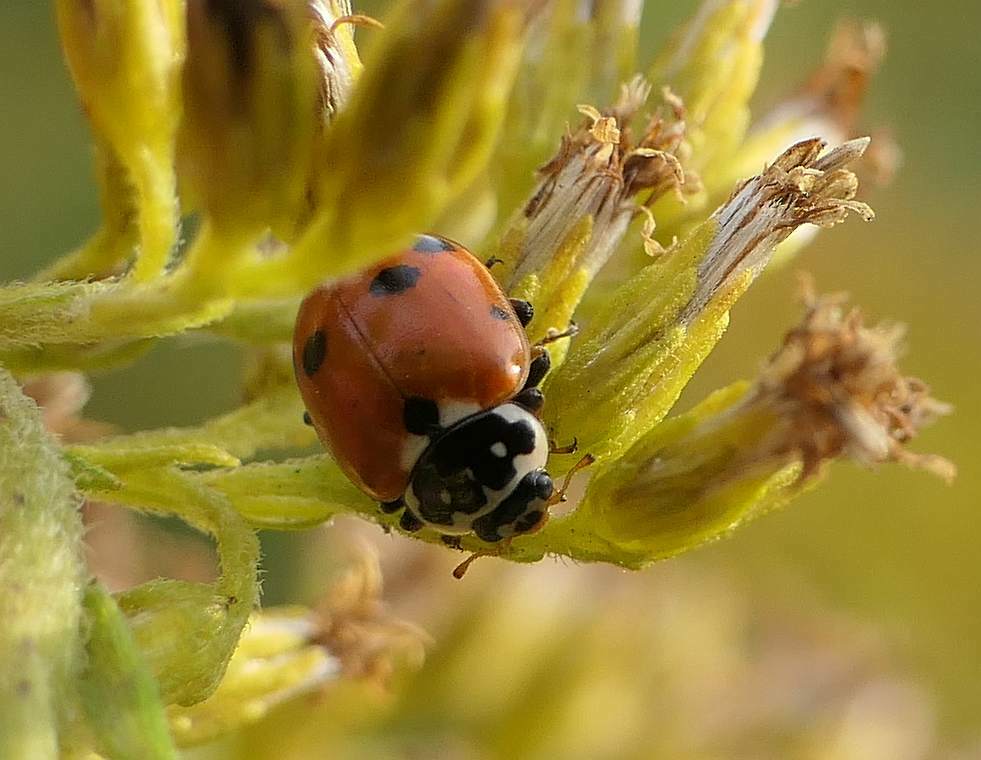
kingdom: Animalia
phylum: Arthropoda
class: Insecta
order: Coleoptera
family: Coccinellidae
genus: Hippodamia
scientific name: Hippodamia variegata
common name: Ladybird beetle
